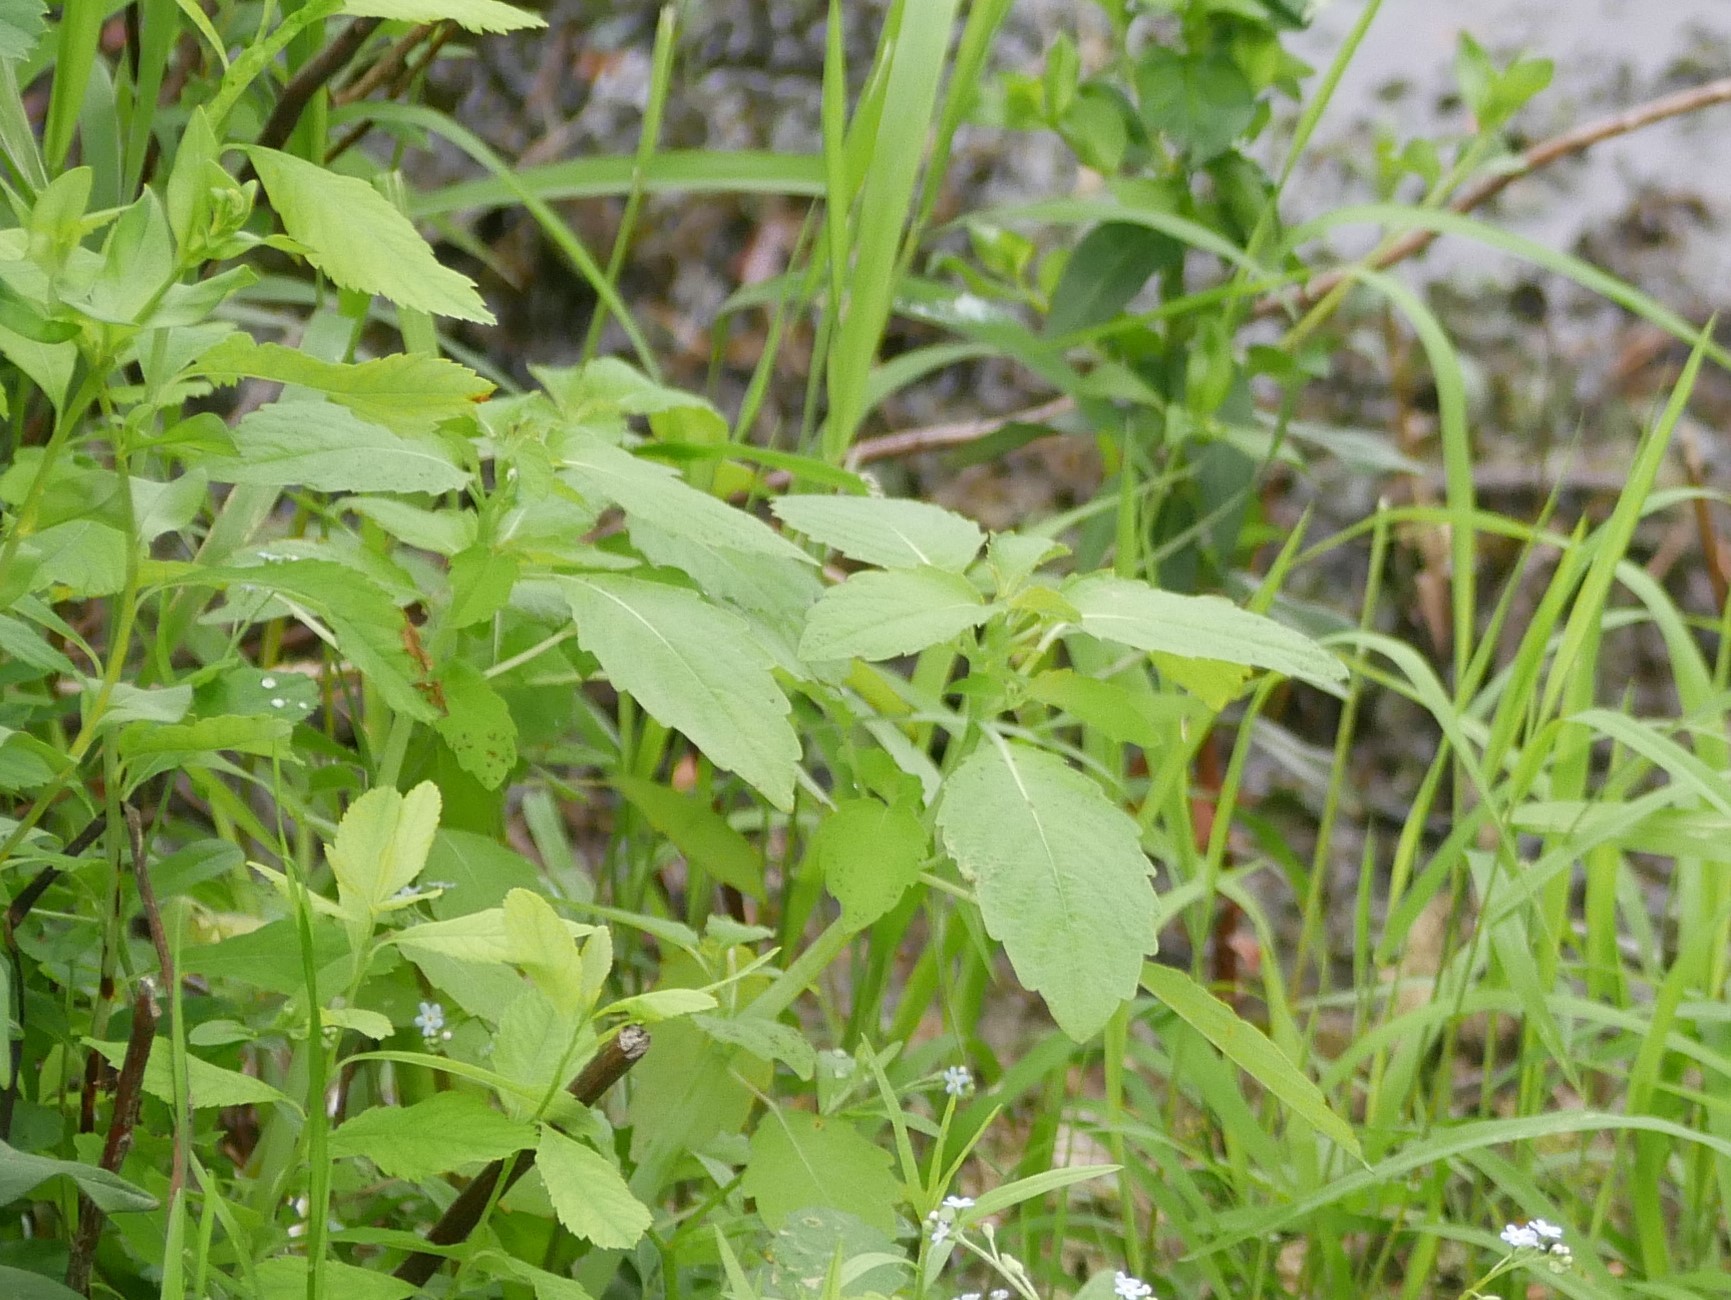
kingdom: Plantae
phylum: Tracheophyta
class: Magnoliopsida
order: Ericales
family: Balsaminaceae
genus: Impatiens
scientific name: Impatiens capensis
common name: Orange balsam
